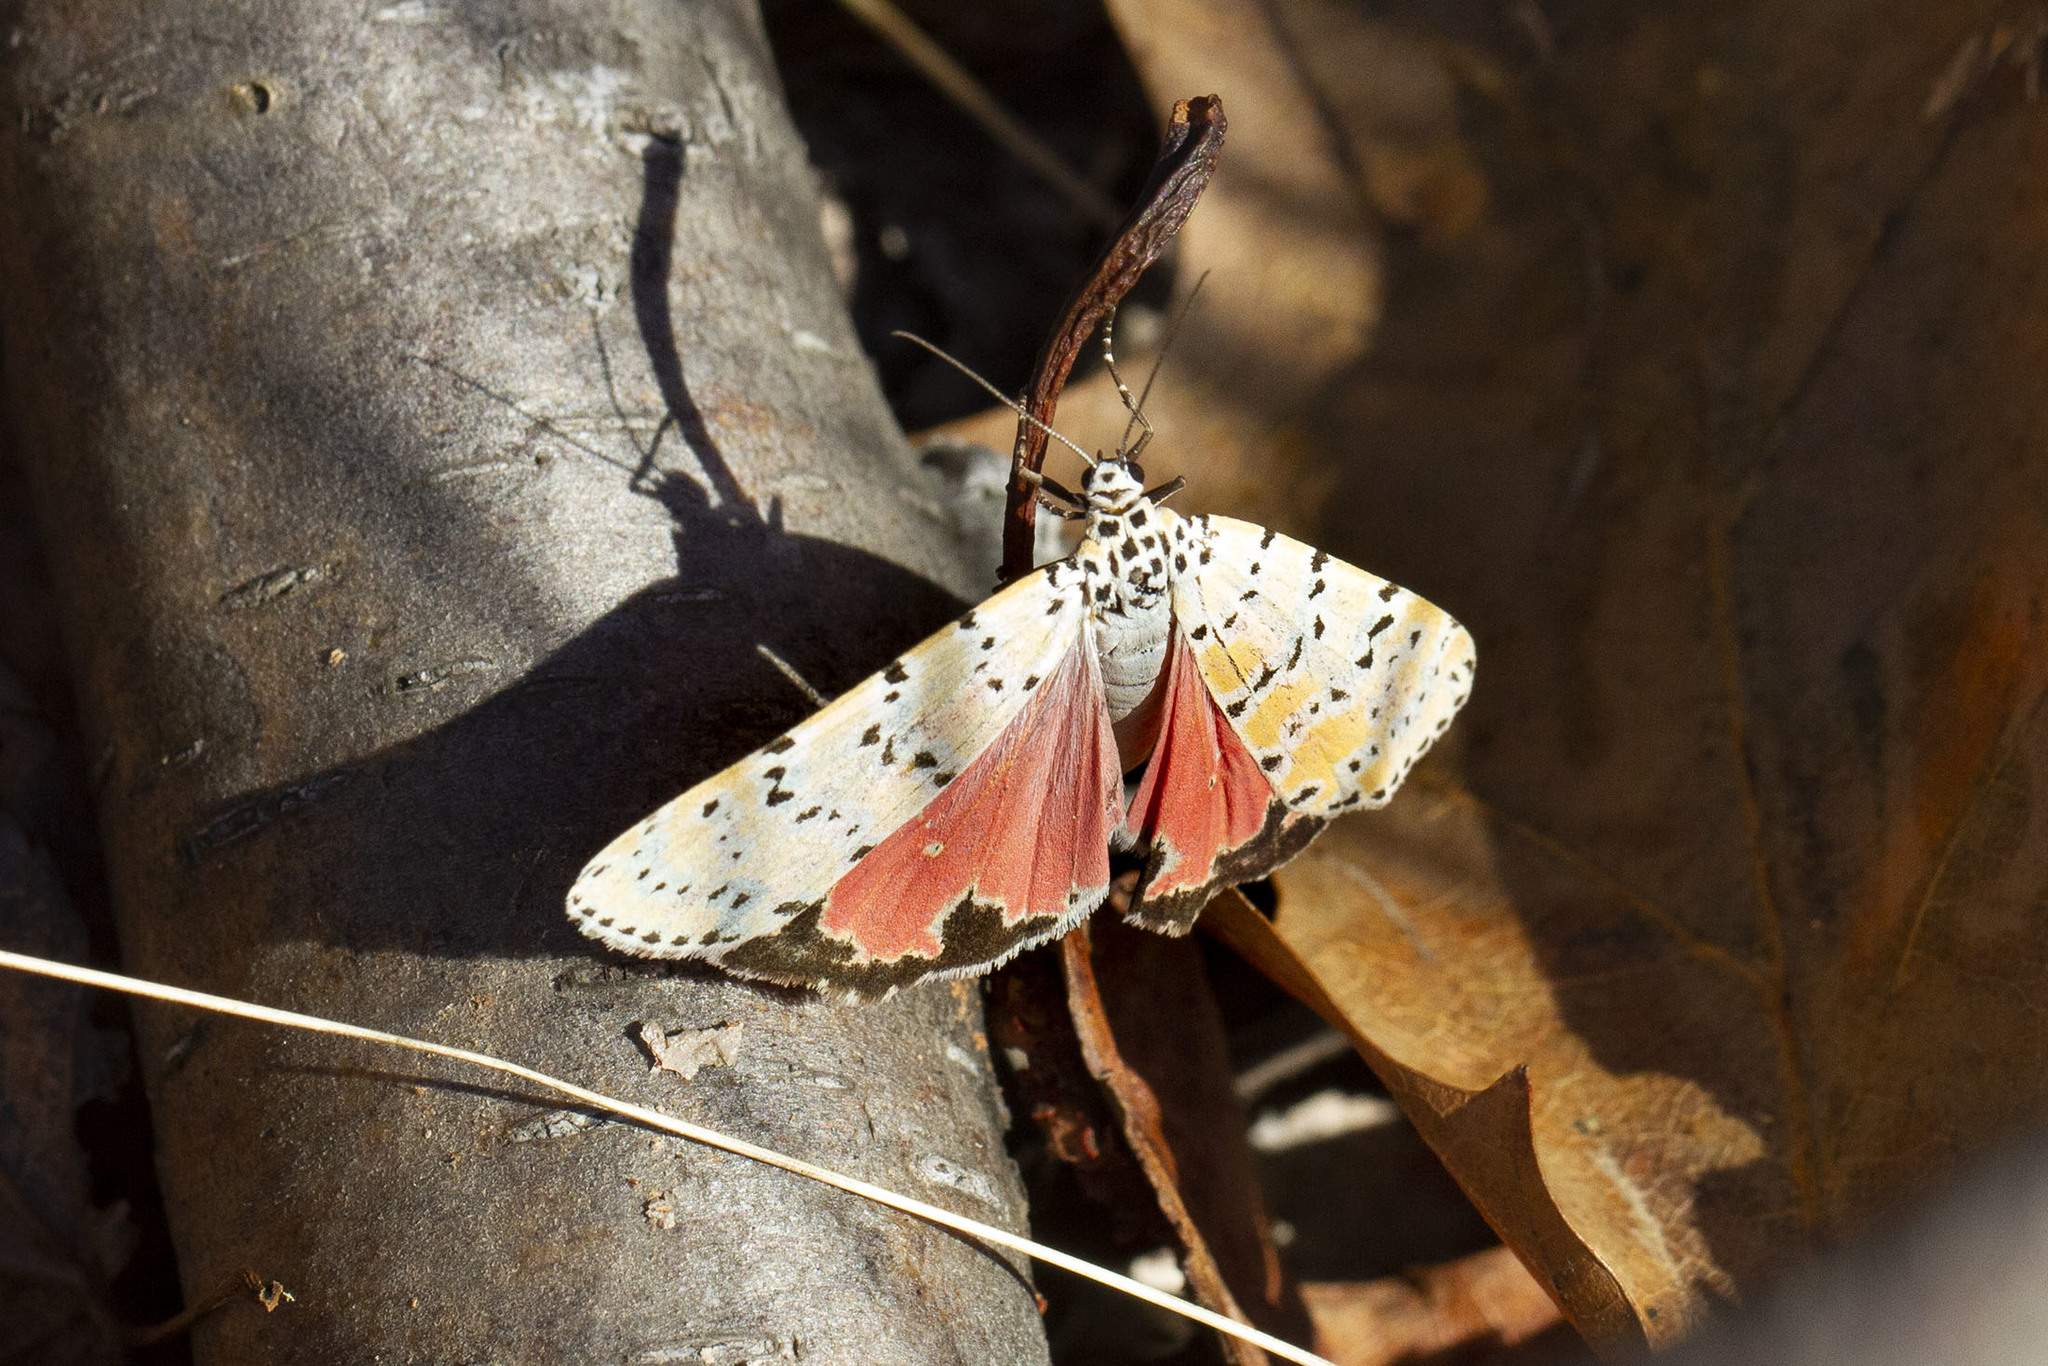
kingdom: Animalia
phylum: Arthropoda
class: Insecta
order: Lepidoptera
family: Erebidae
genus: Utetheisa
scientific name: Utetheisa ornatrix
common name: Beautiful utetheisa
